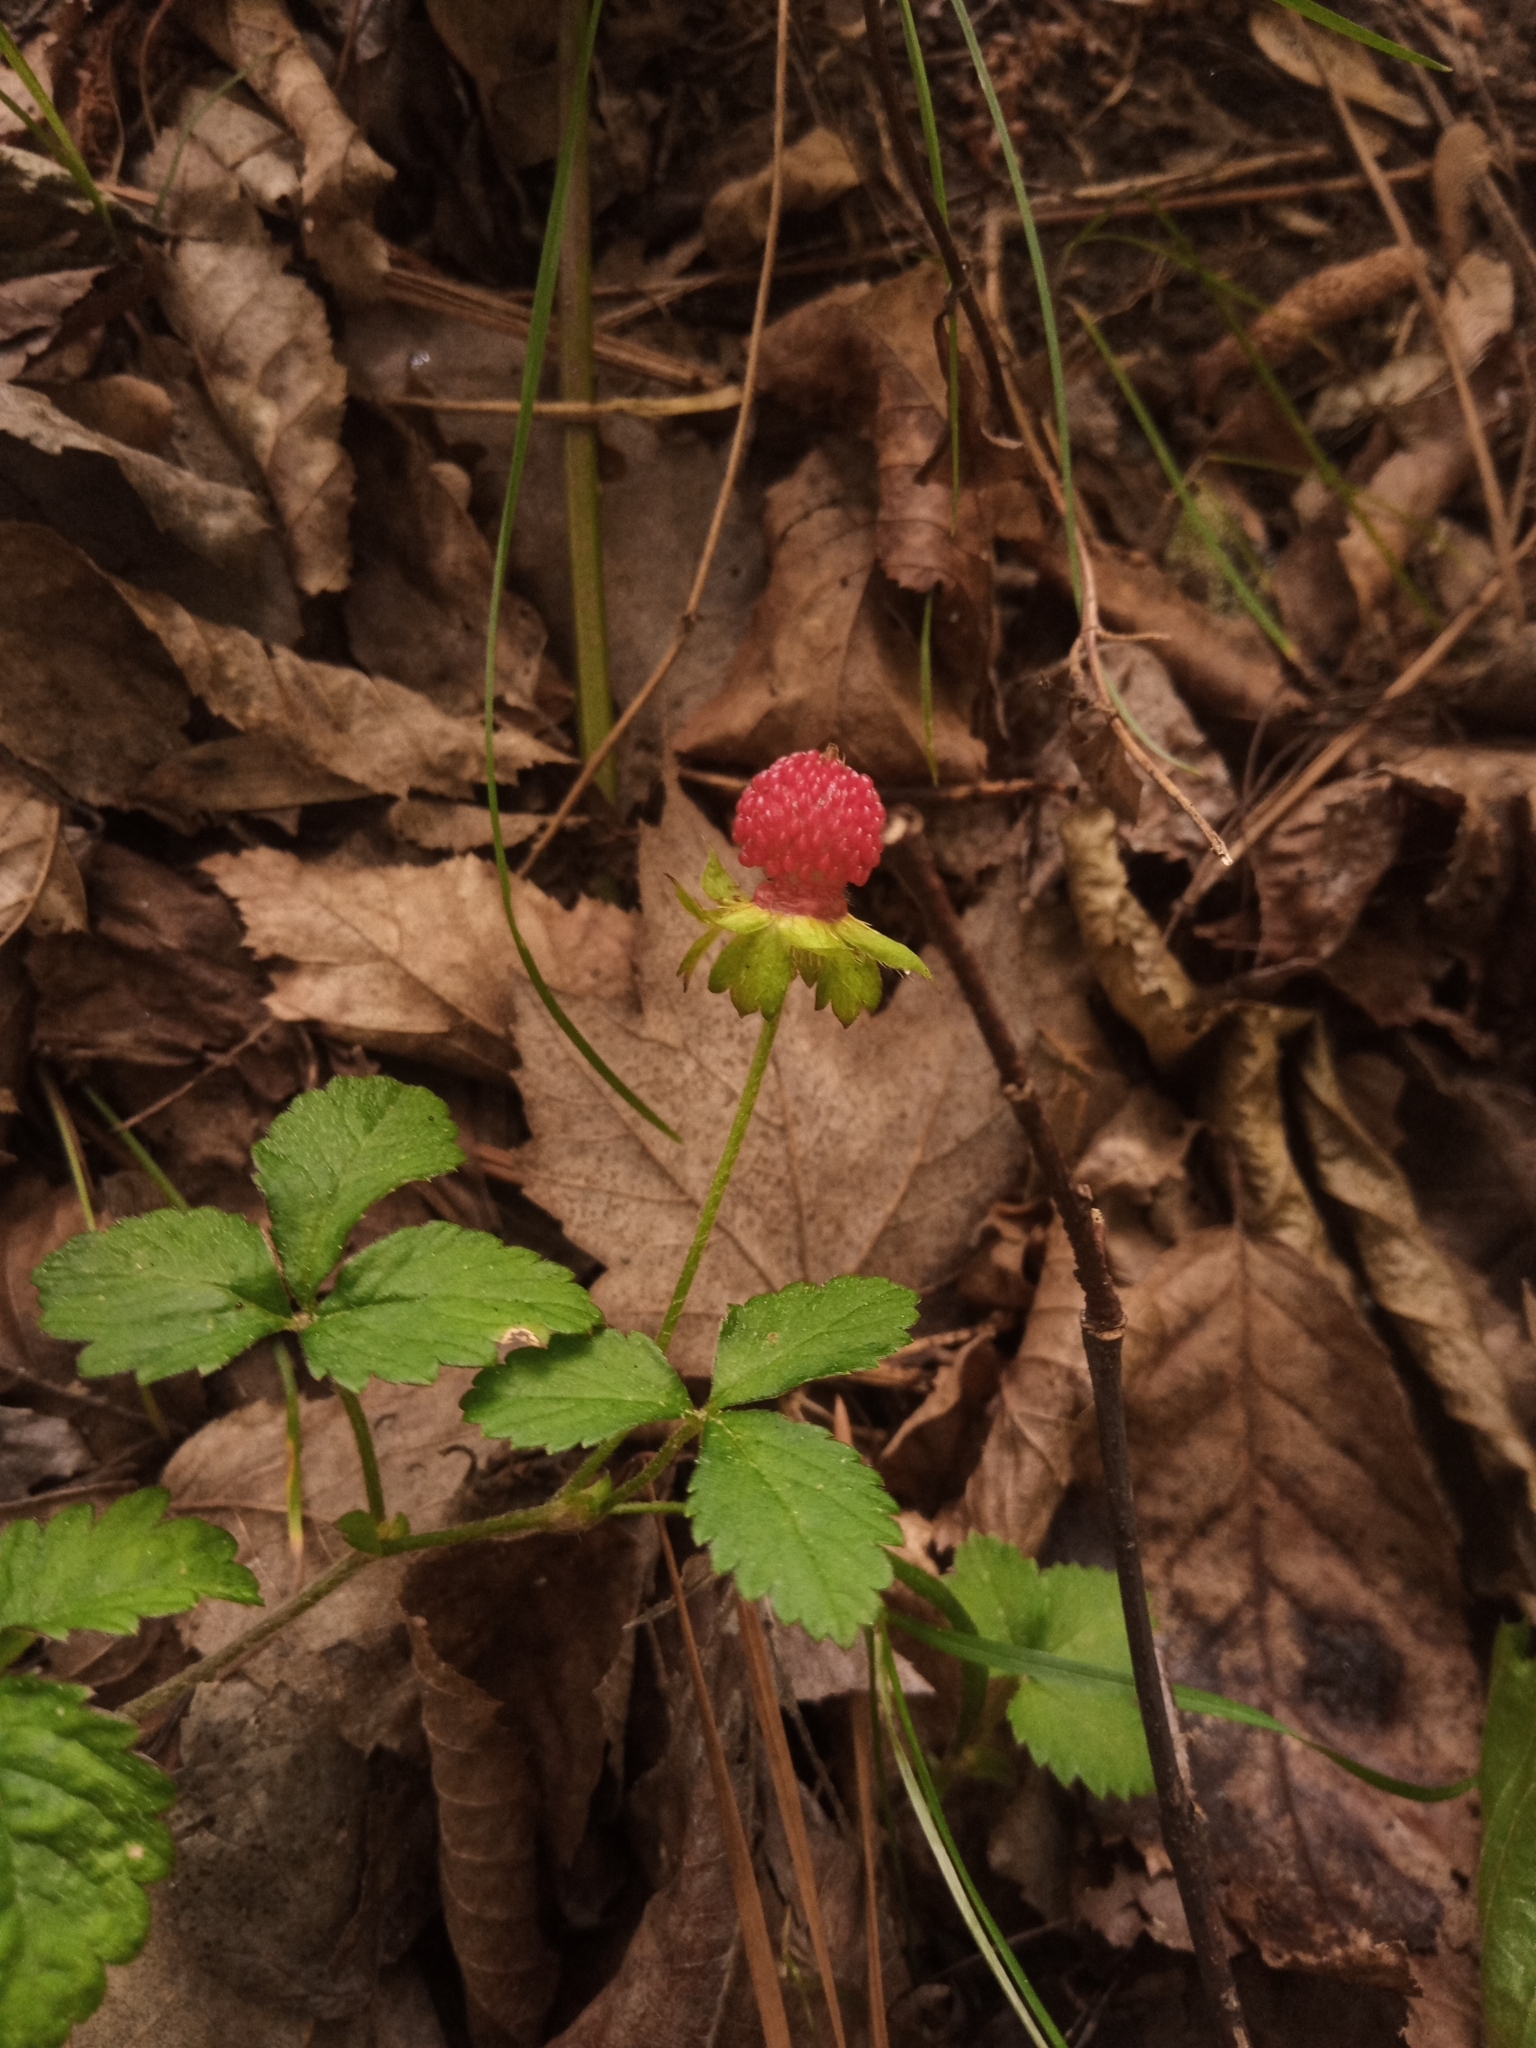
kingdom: Plantae
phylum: Tracheophyta
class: Magnoliopsida
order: Rosales
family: Rosaceae
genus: Potentilla
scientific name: Potentilla indica
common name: Yellow-flowered strawberry
